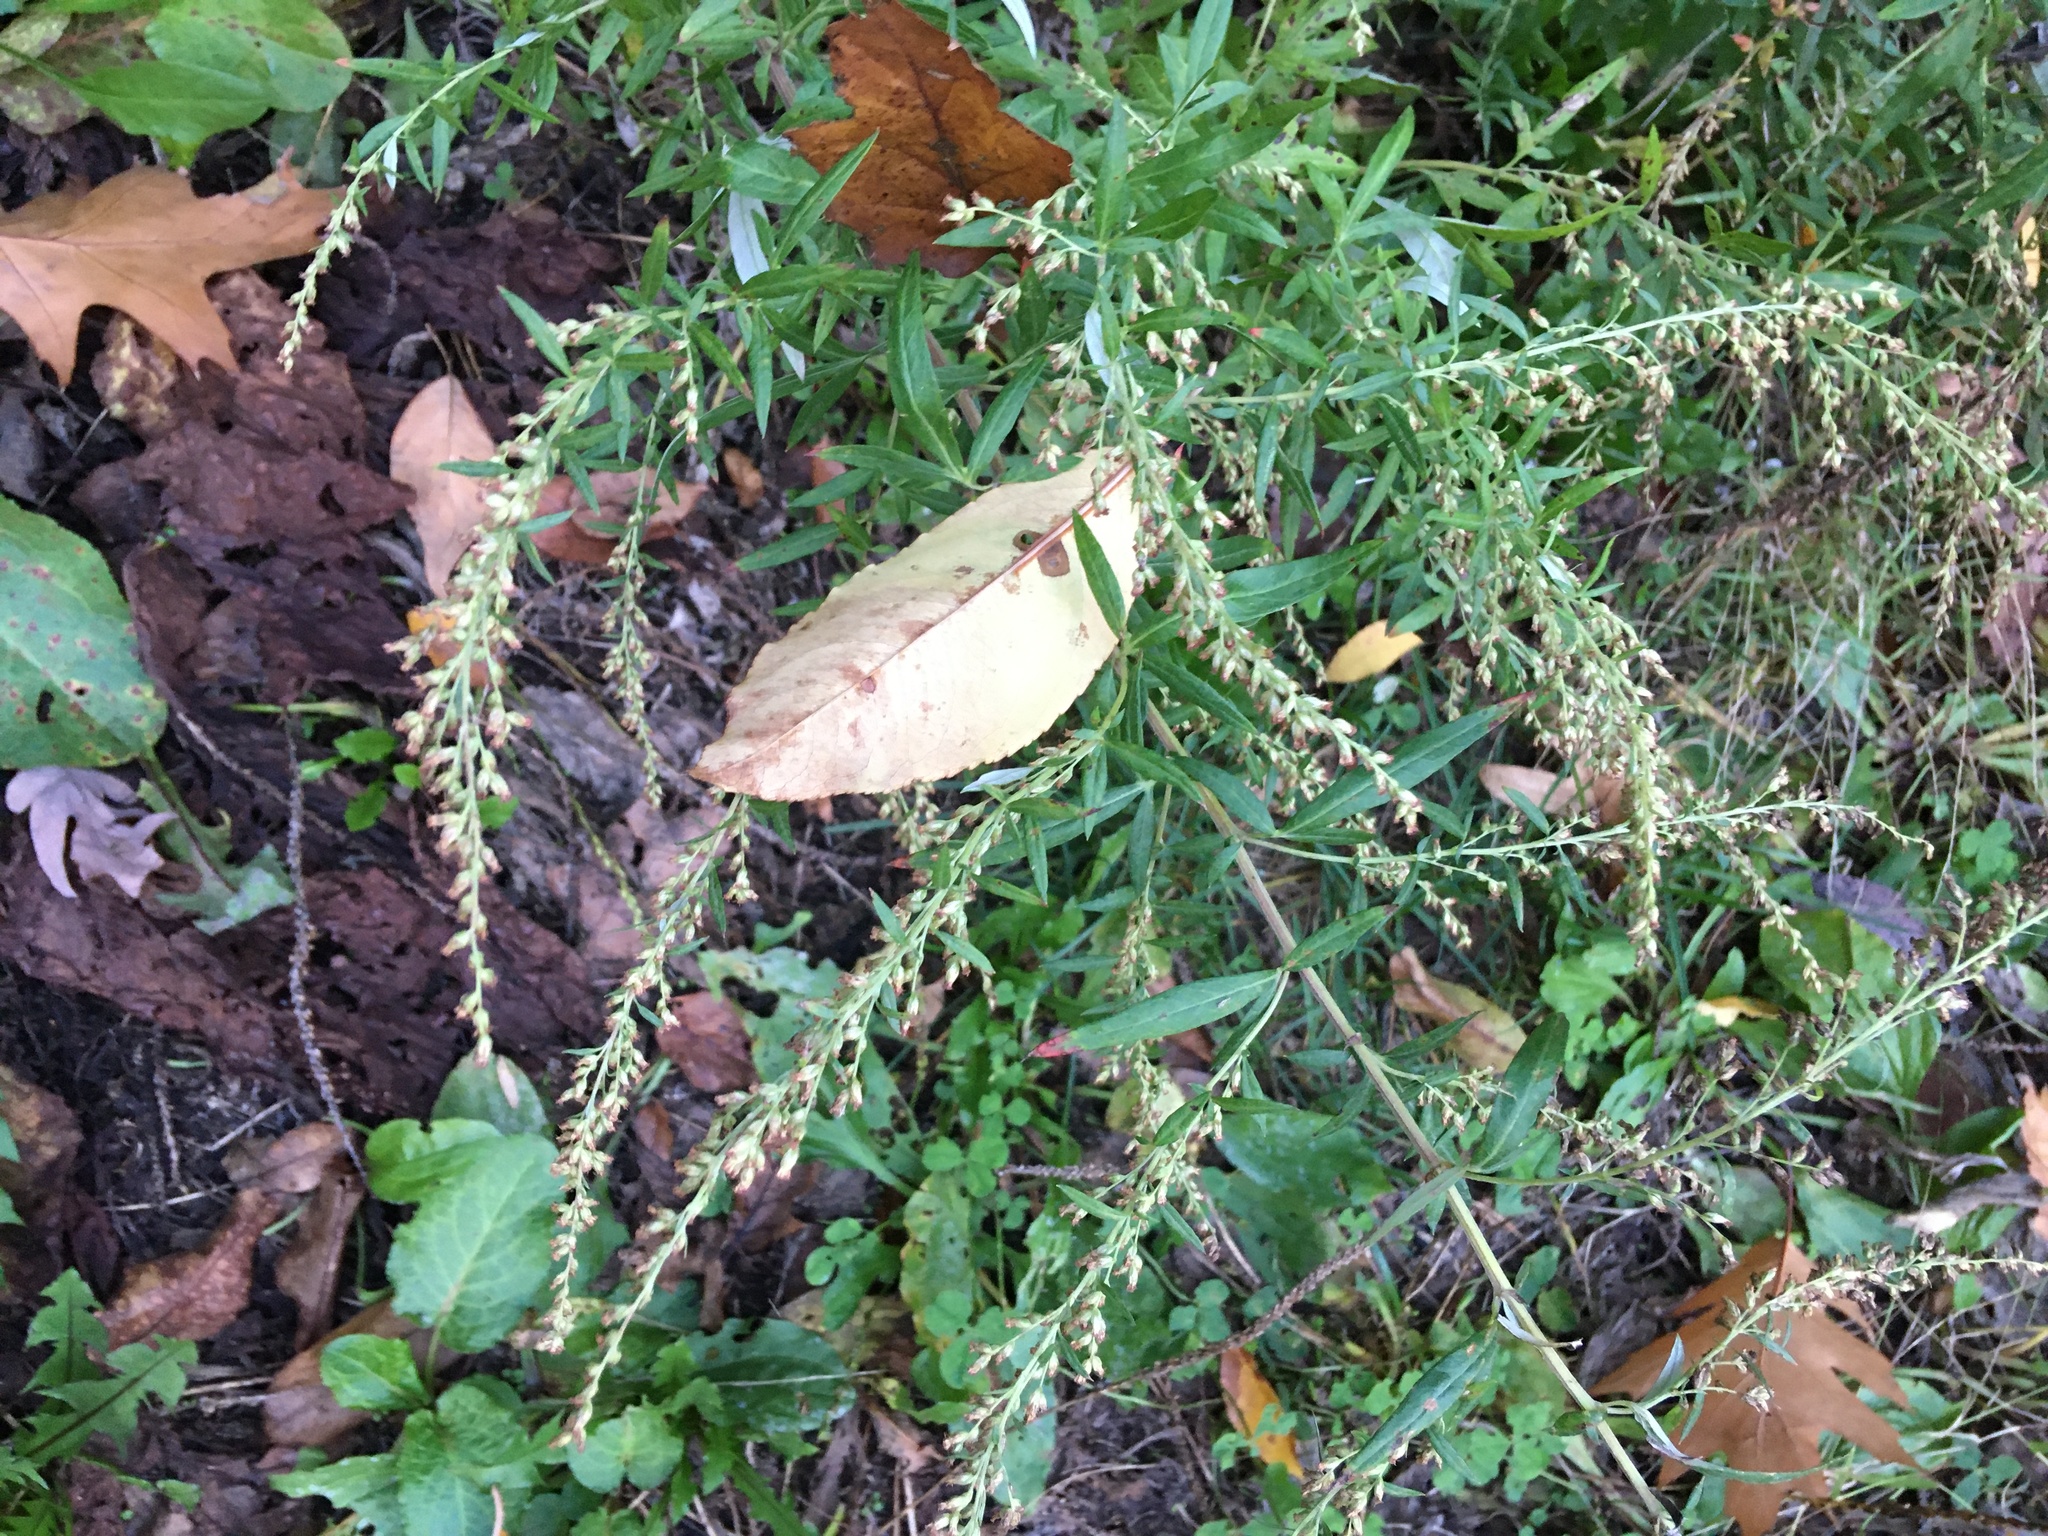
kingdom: Plantae
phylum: Tracheophyta
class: Magnoliopsida
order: Asterales
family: Asteraceae
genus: Artemisia
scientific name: Artemisia vulgaris
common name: Mugwort
